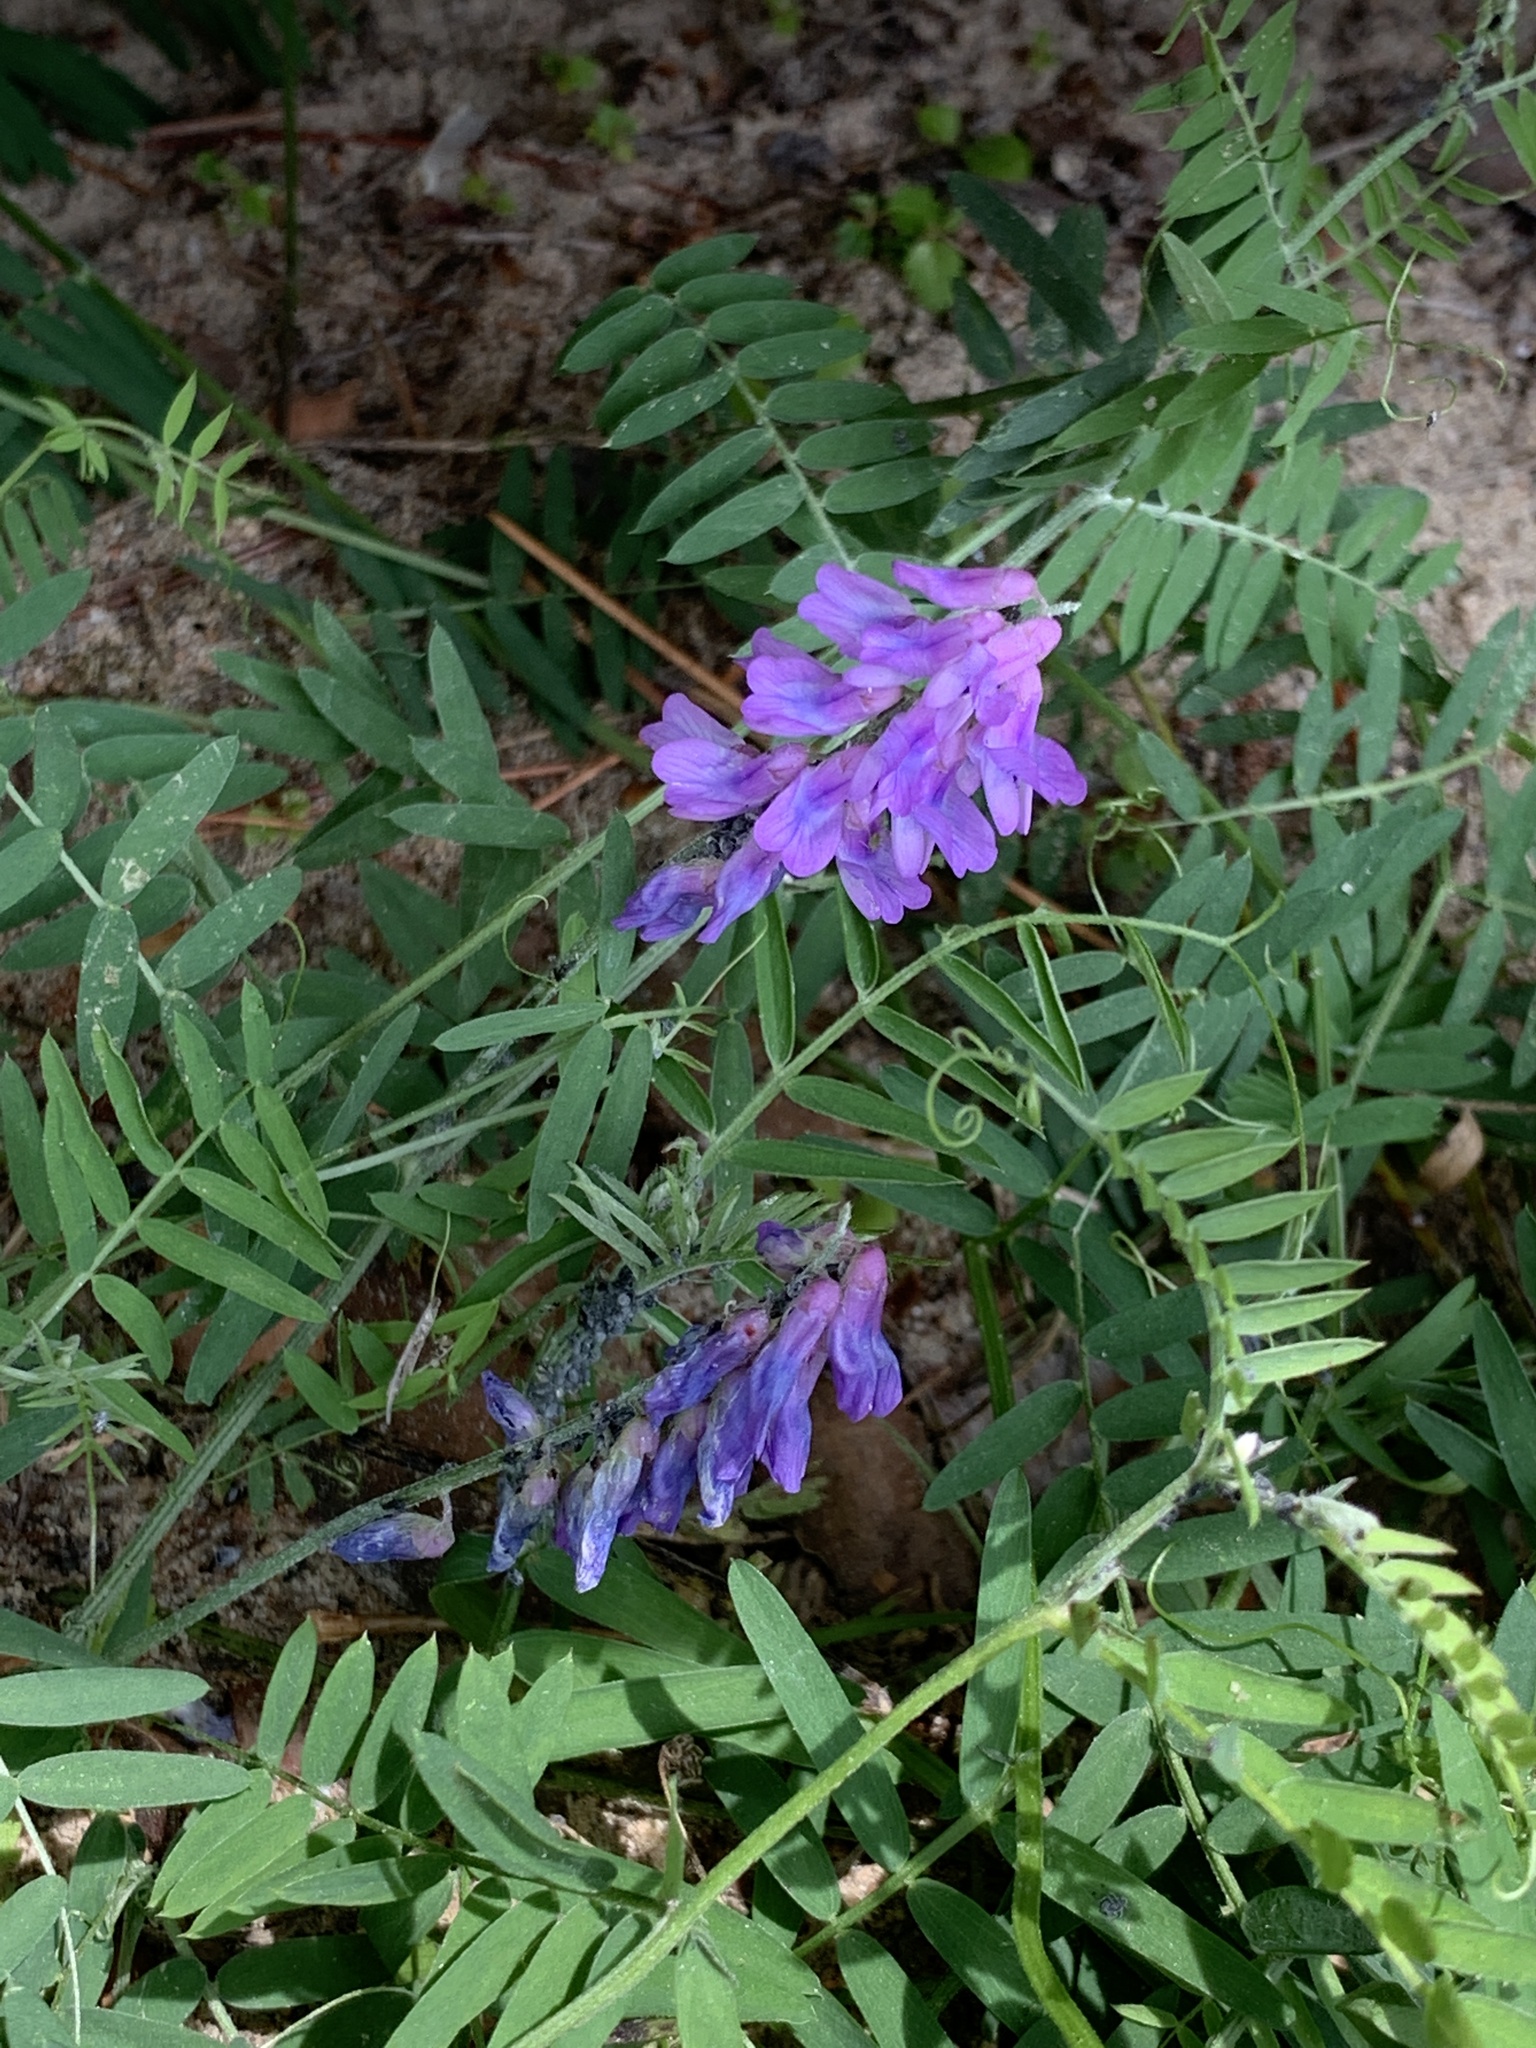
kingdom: Plantae
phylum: Tracheophyta
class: Magnoliopsida
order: Fabales
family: Fabaceae
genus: Vicia
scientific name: Vicia cracca
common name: Bird vetch
